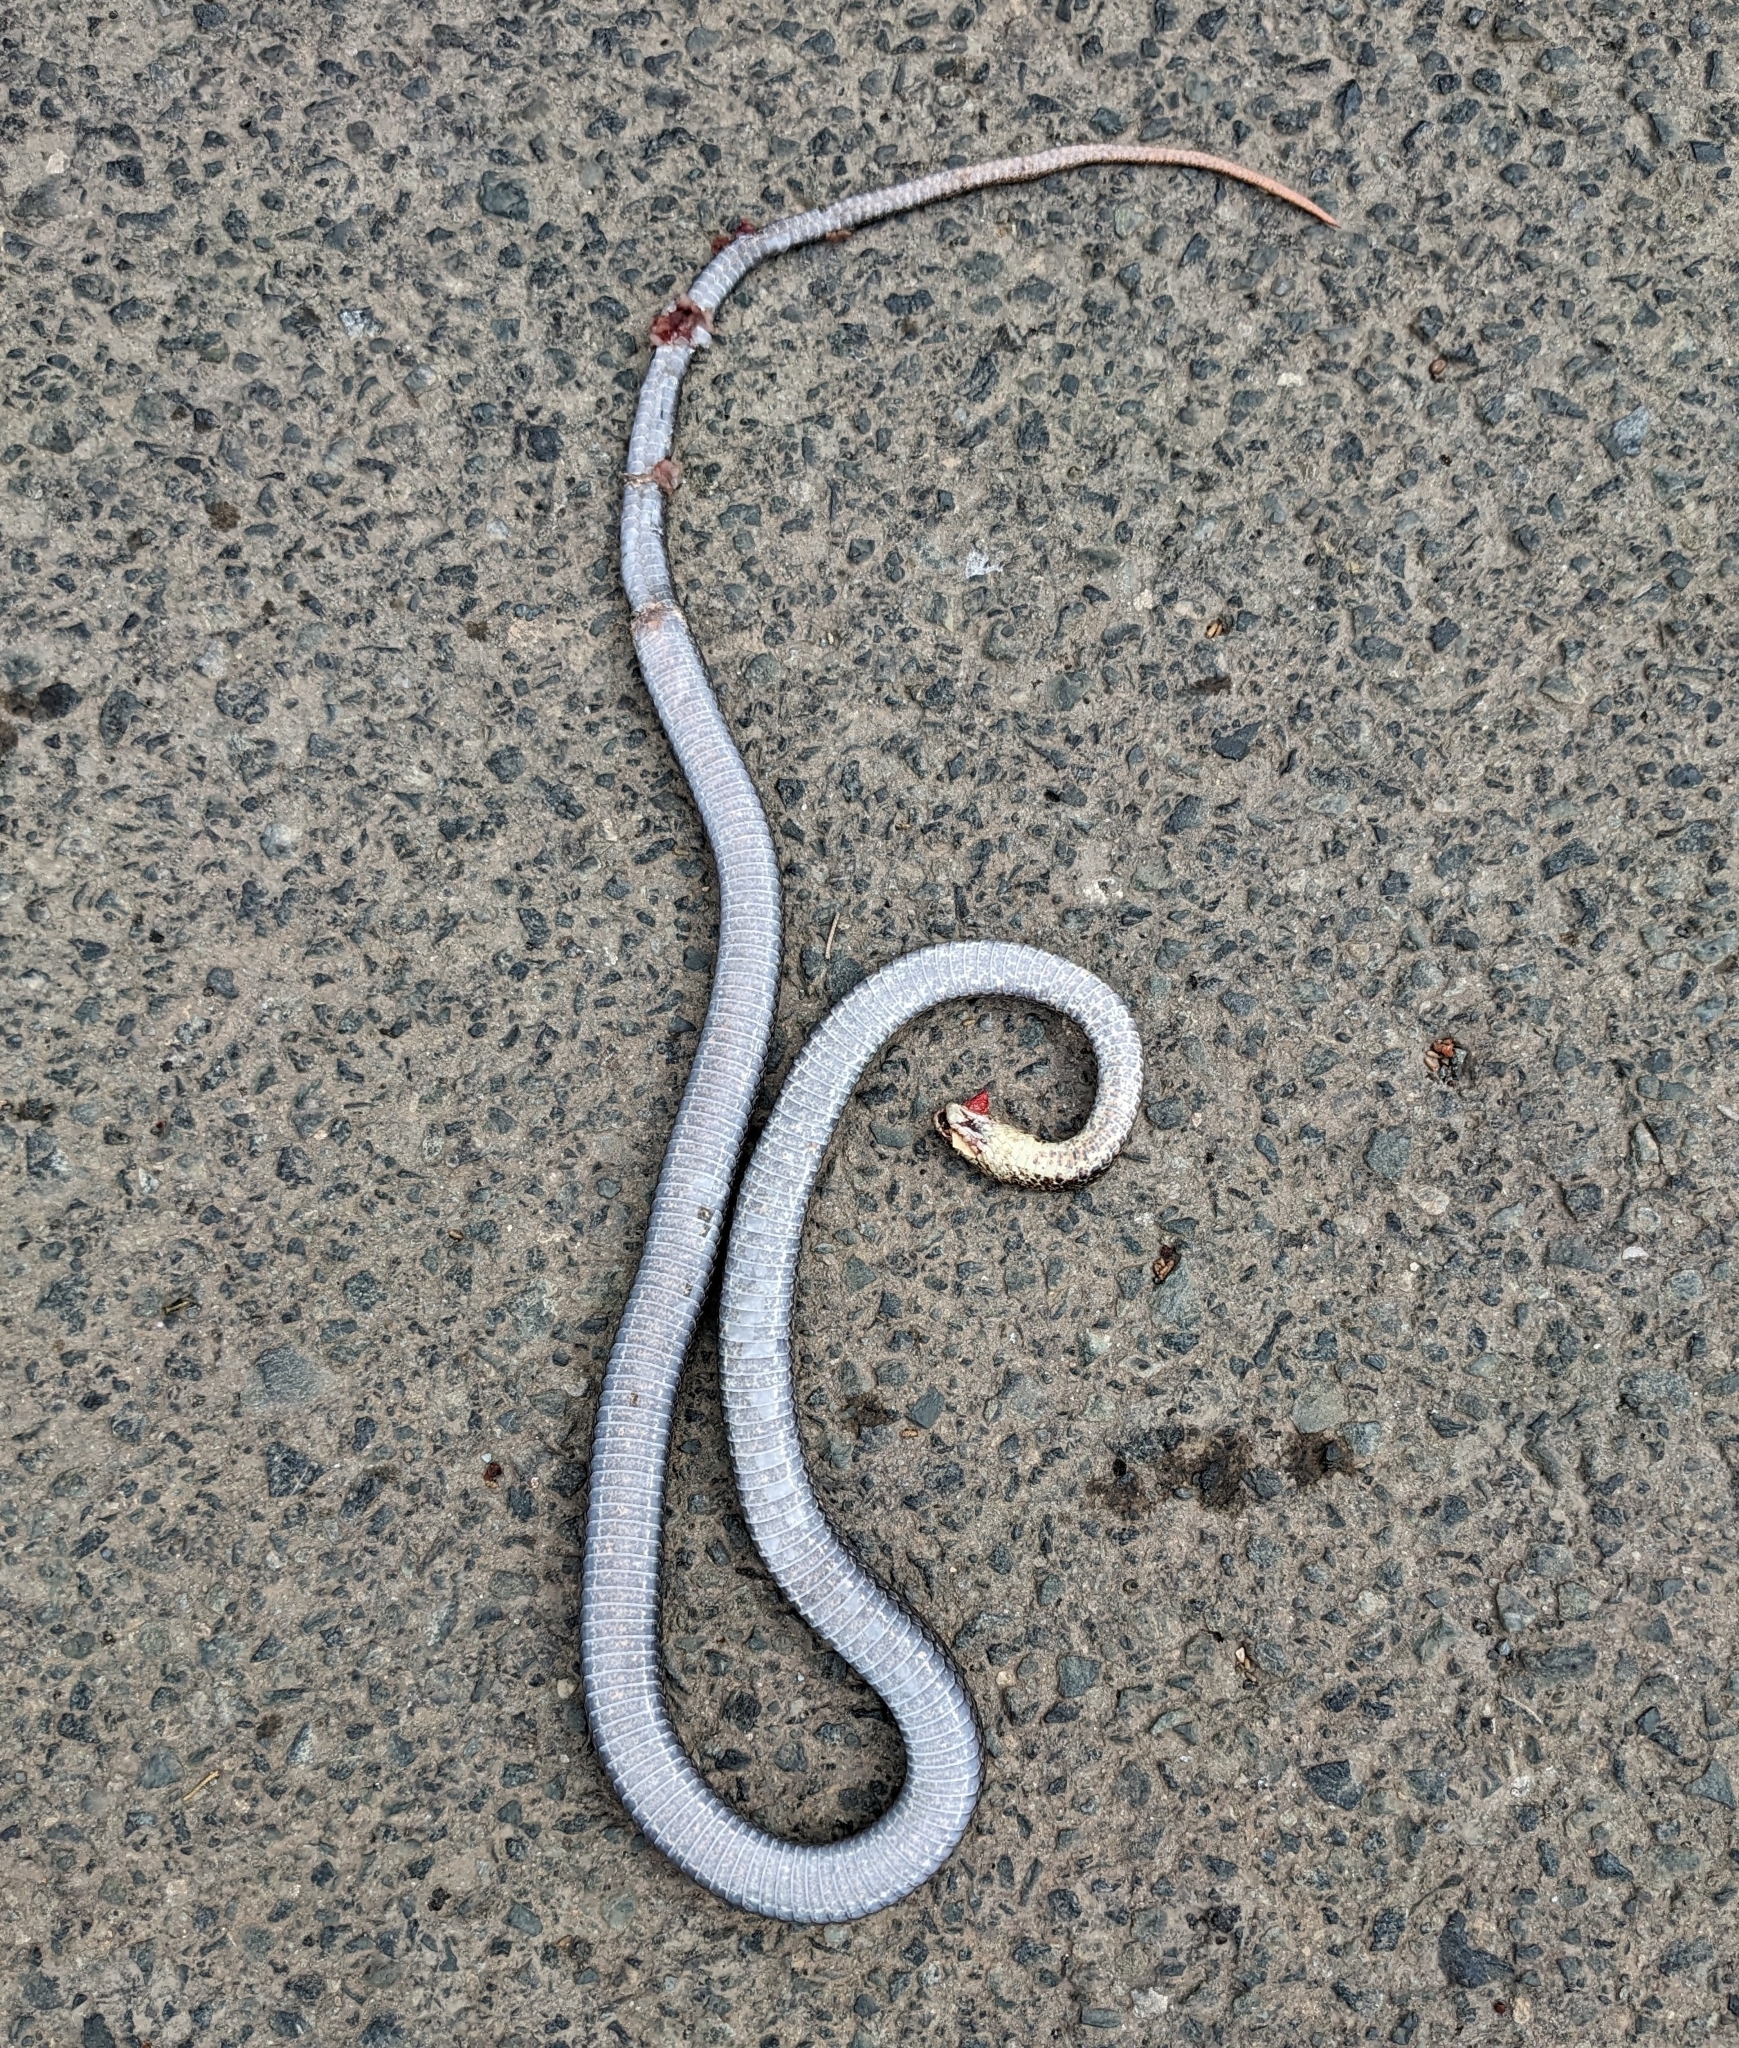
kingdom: Animalia
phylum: Chordata
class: Squamata
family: Colubridae
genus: Dolichophis
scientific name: Dolichophis jugularis
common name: Large whip snake
